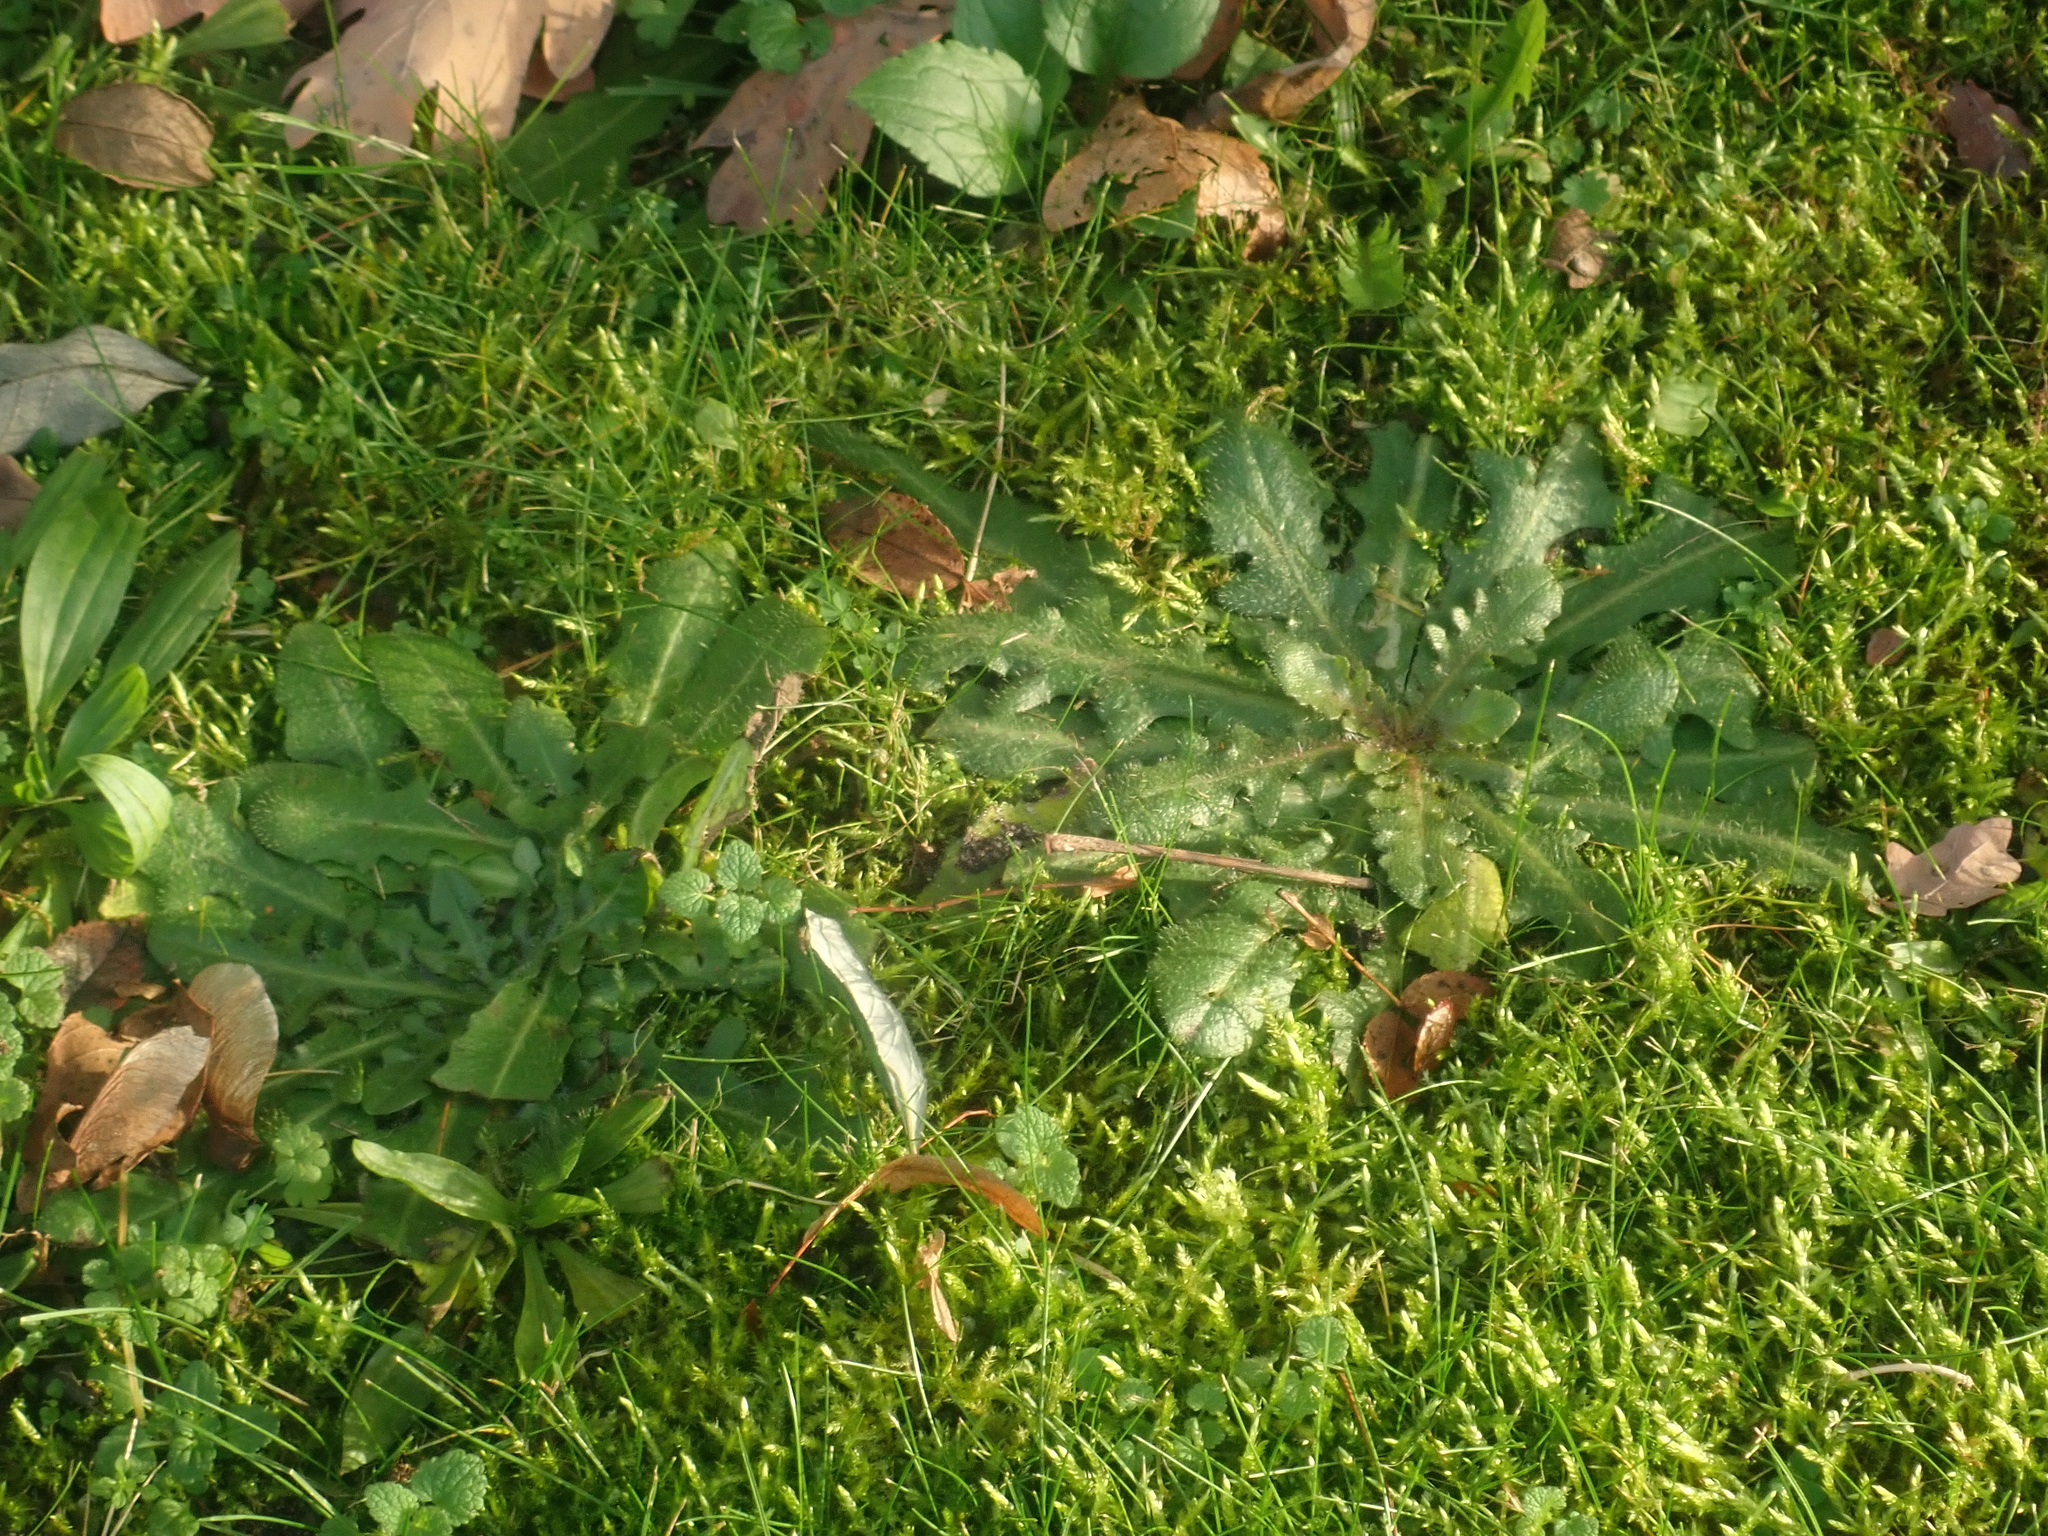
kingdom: Plantae
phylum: Tracheophyta
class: Magnoliopsida
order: Asterales
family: Asteraceae
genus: Hypochaeris
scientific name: Hypochaeris radicata
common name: Flatweed
